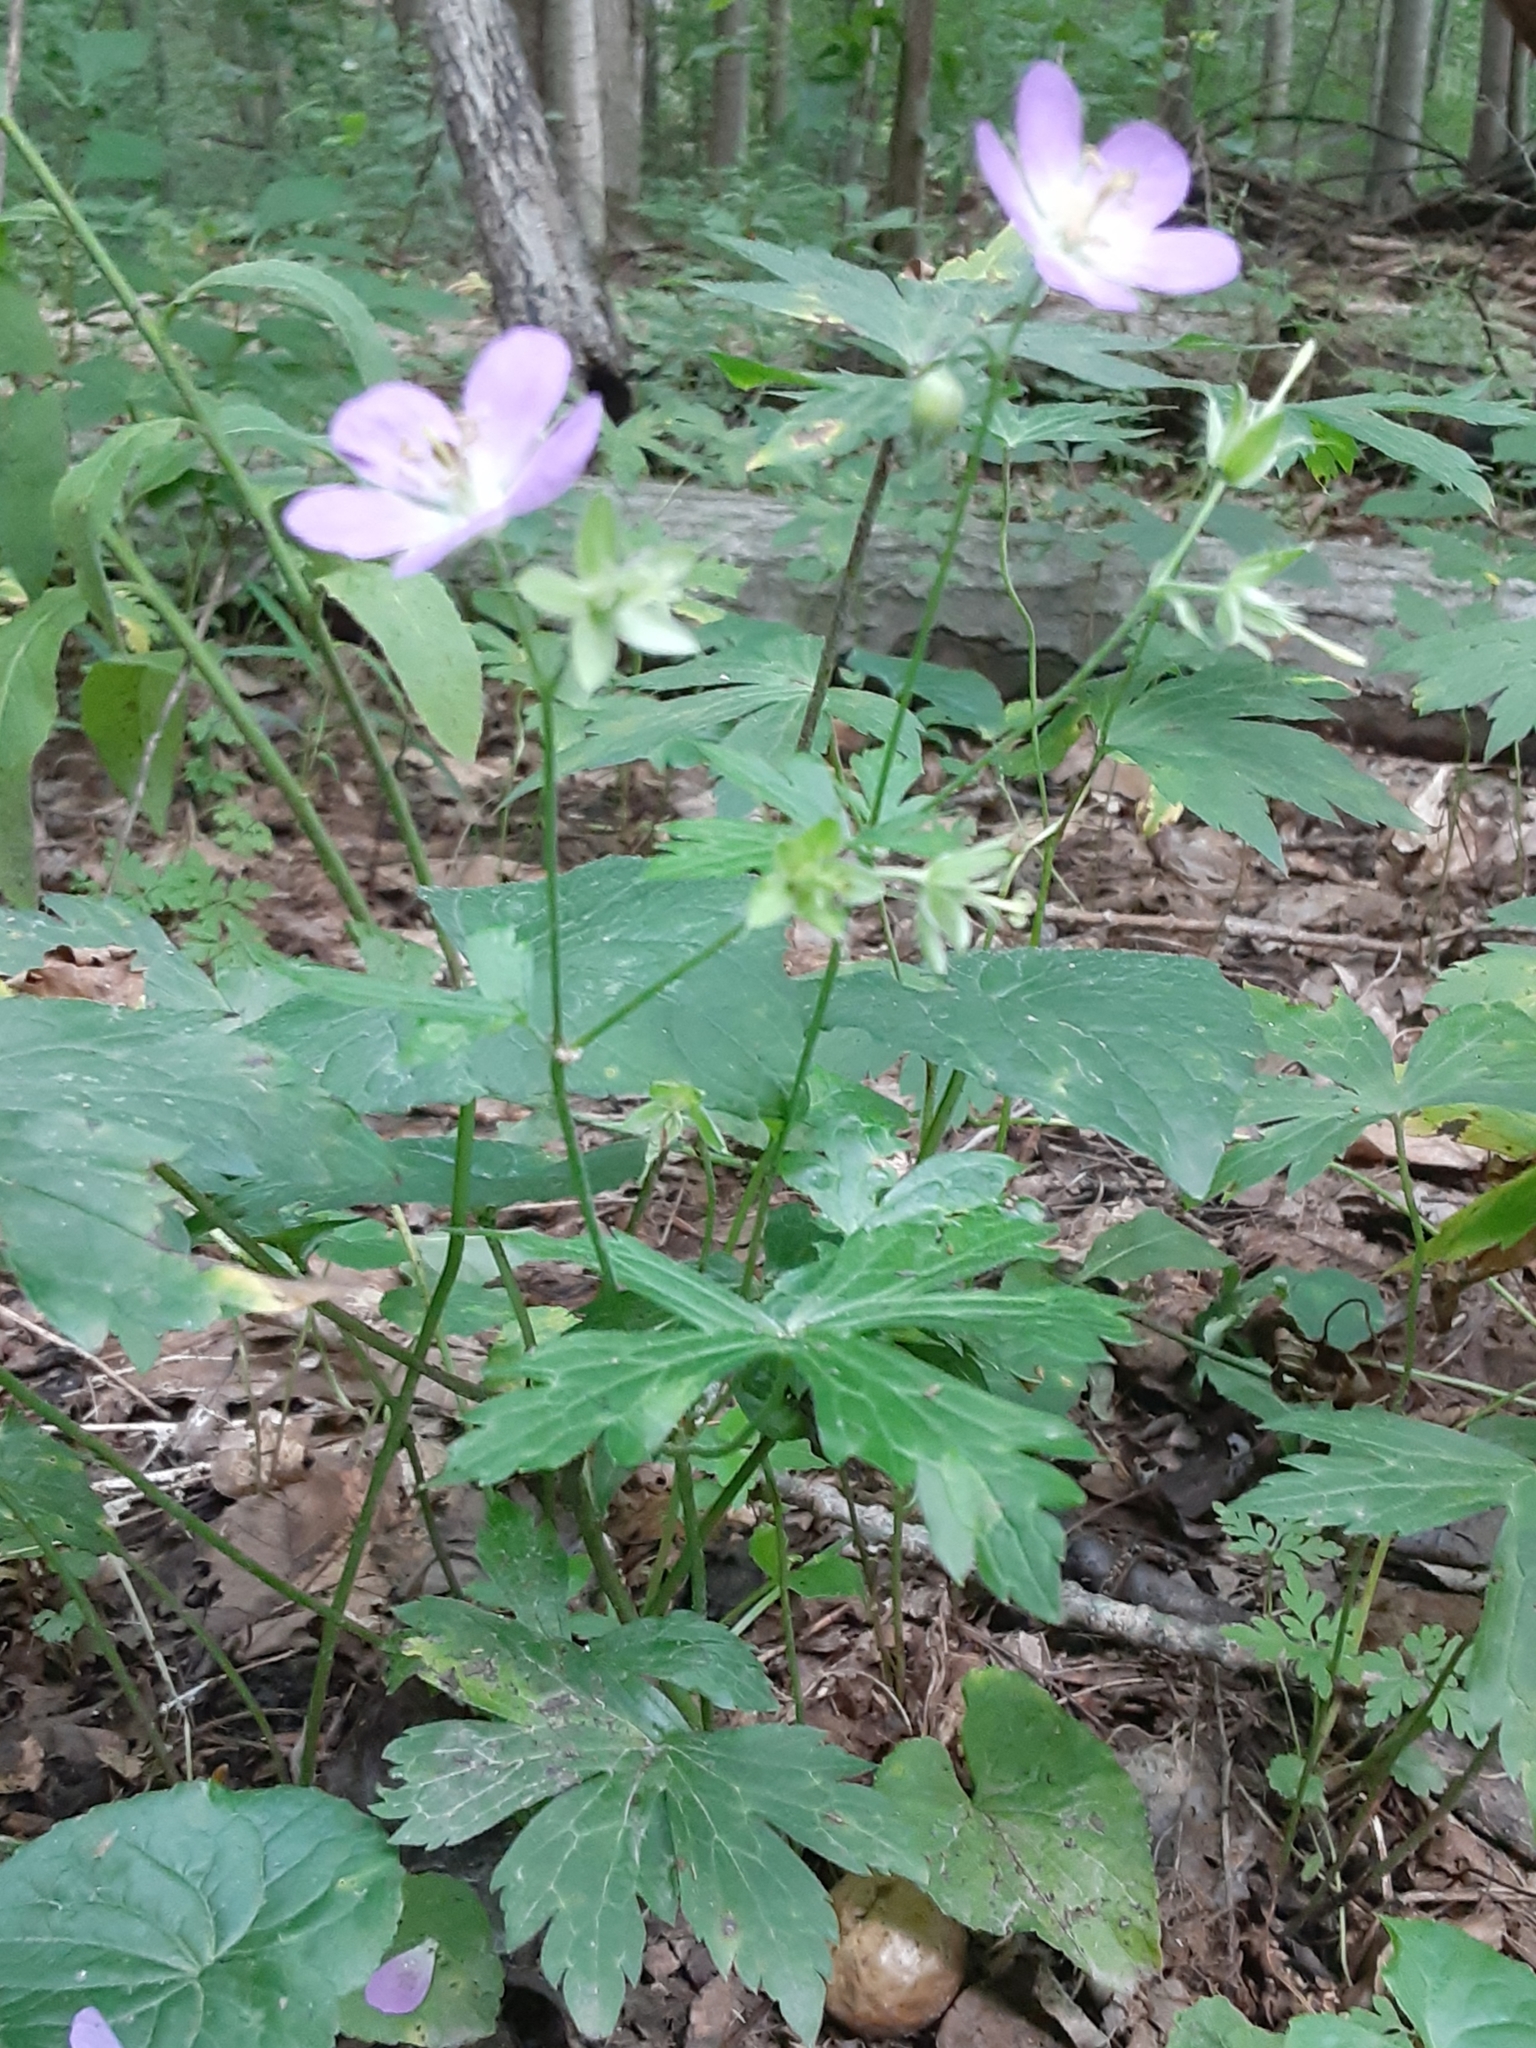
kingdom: Plantae
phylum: Tracheophyta
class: Magnoliopsida
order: Geraniales
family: Geraniaceae
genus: Geranium
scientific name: Geranium maculatum
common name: Spotted geranium
